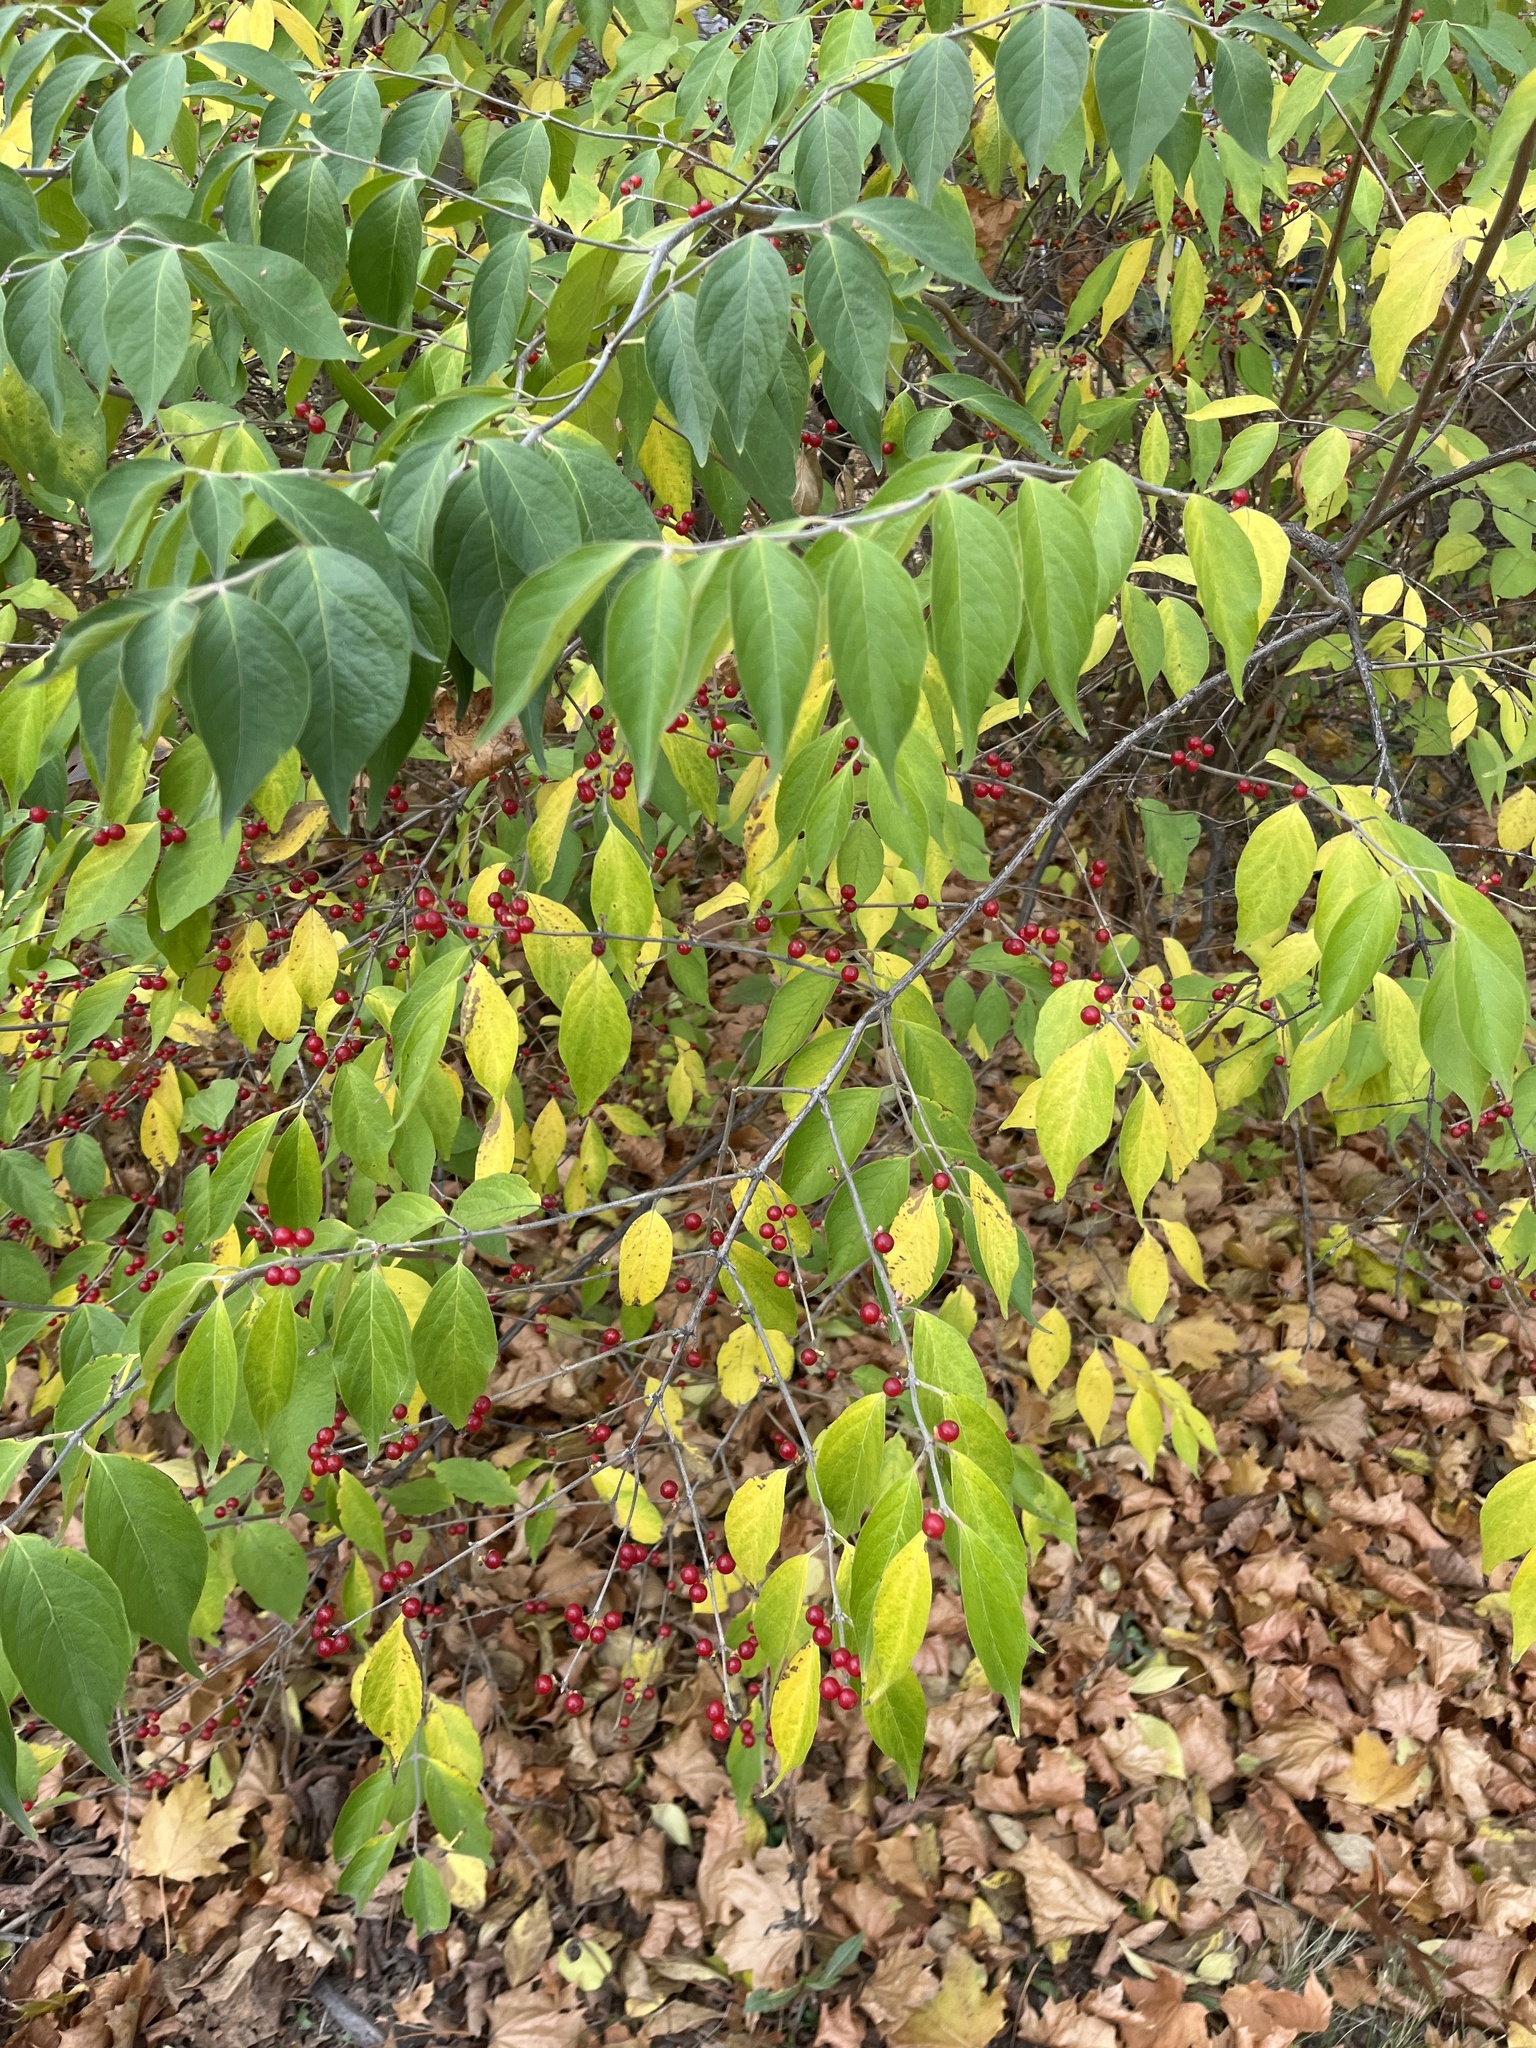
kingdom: Plantae
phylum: Tracheophyta
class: Magnoliopsida
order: Dipsacales
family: Caprifoliaceae
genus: Lonicera
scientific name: Lonicera maackii
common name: Amur honeysuckle
